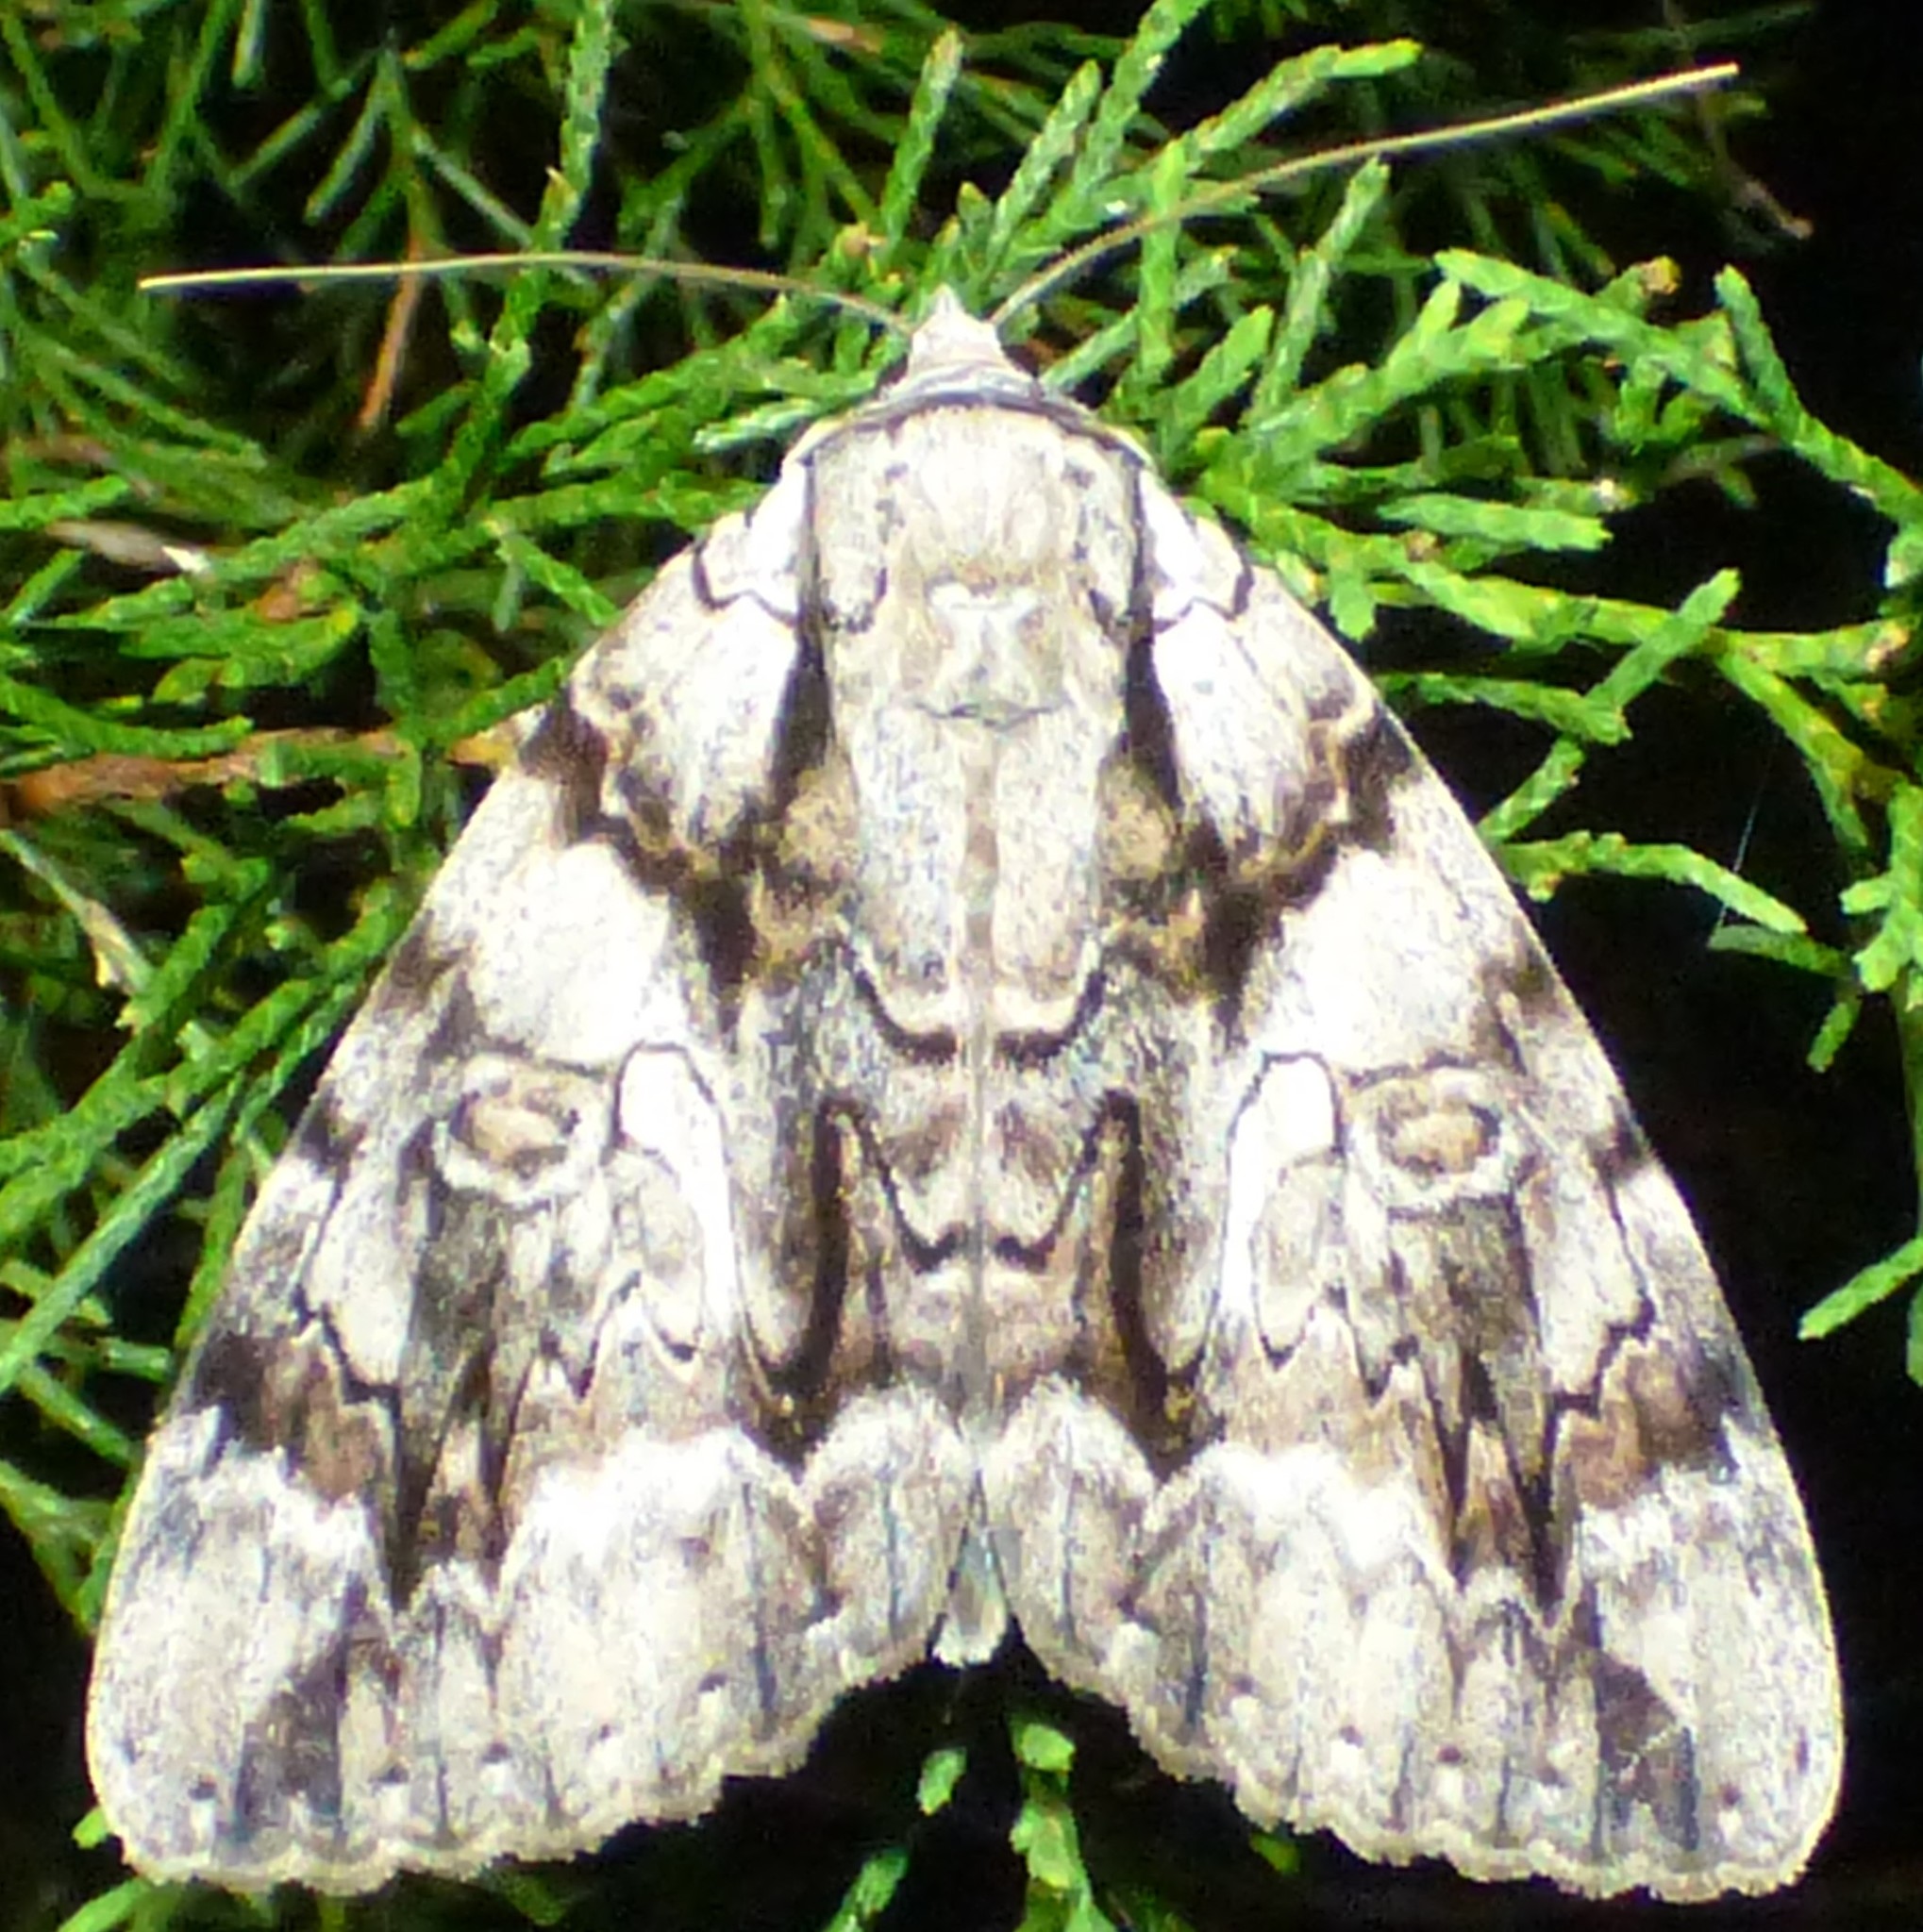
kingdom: Animalia
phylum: Arthropoda
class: Insecta
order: Lepidoptera
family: Erebidae
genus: Catocala
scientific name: Catocala vidua
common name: The widow
